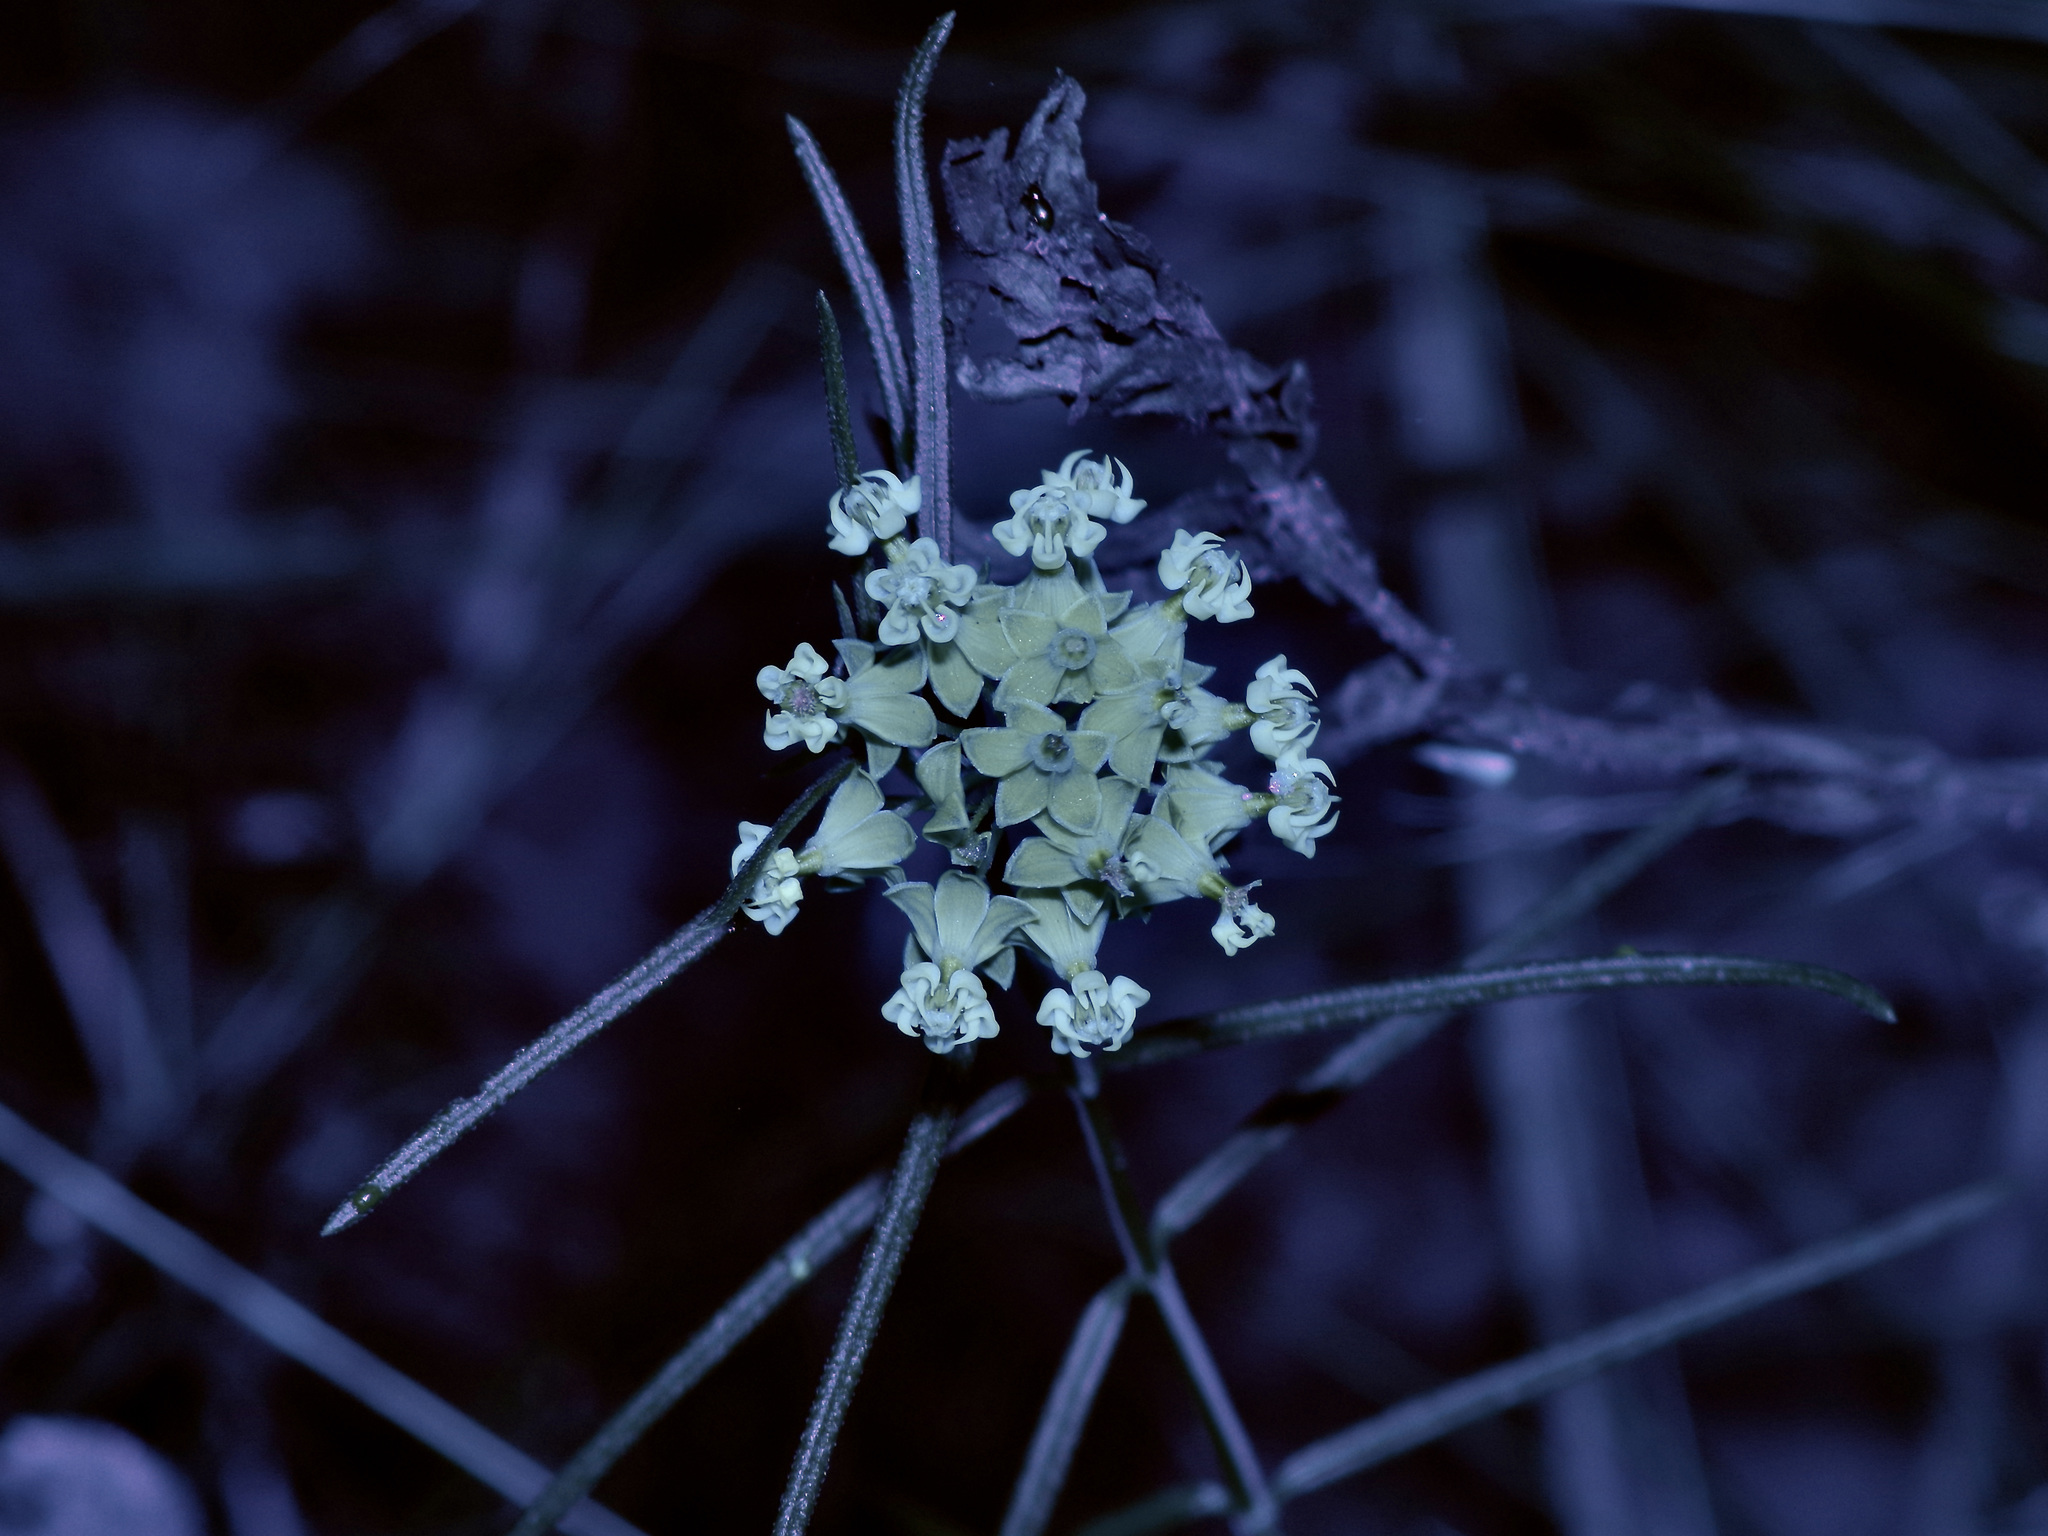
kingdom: Plantae
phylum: Tracheophyta
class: Magnoliopsida
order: Gentianales
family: Apocynaceae
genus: Asclepias
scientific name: Asclepias linearis
